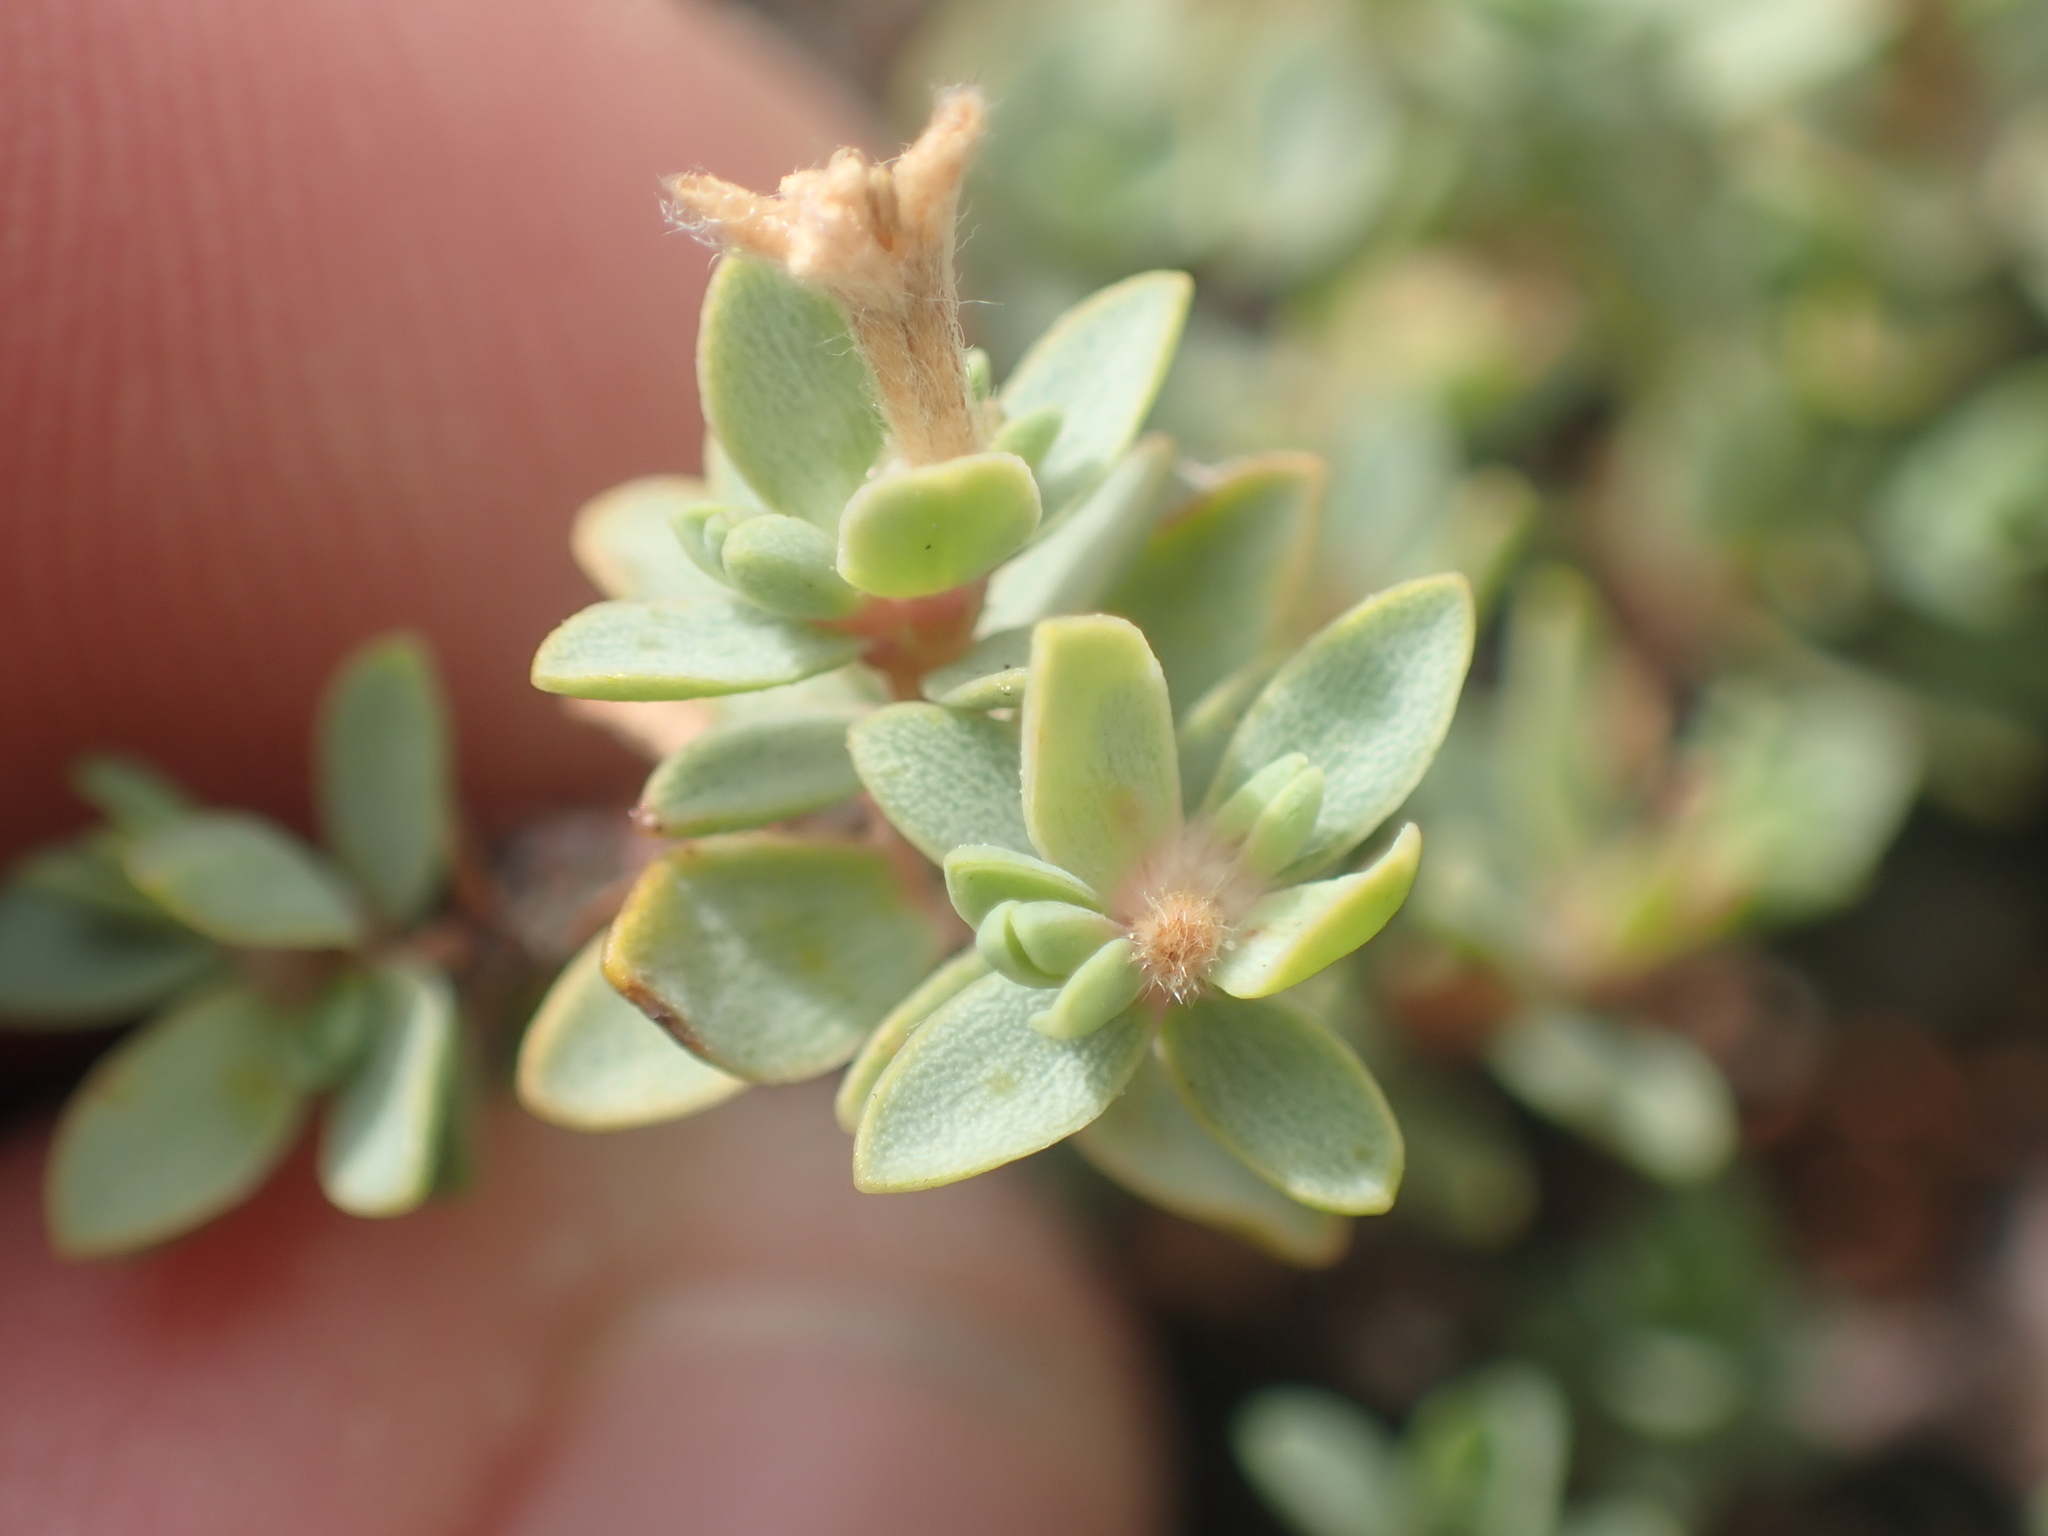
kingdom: Plantae
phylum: Tracheophyta
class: Magnoliopsida
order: Malvales
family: Thymelaeaceae
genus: Pimelea
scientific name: Pimelea prostrata
